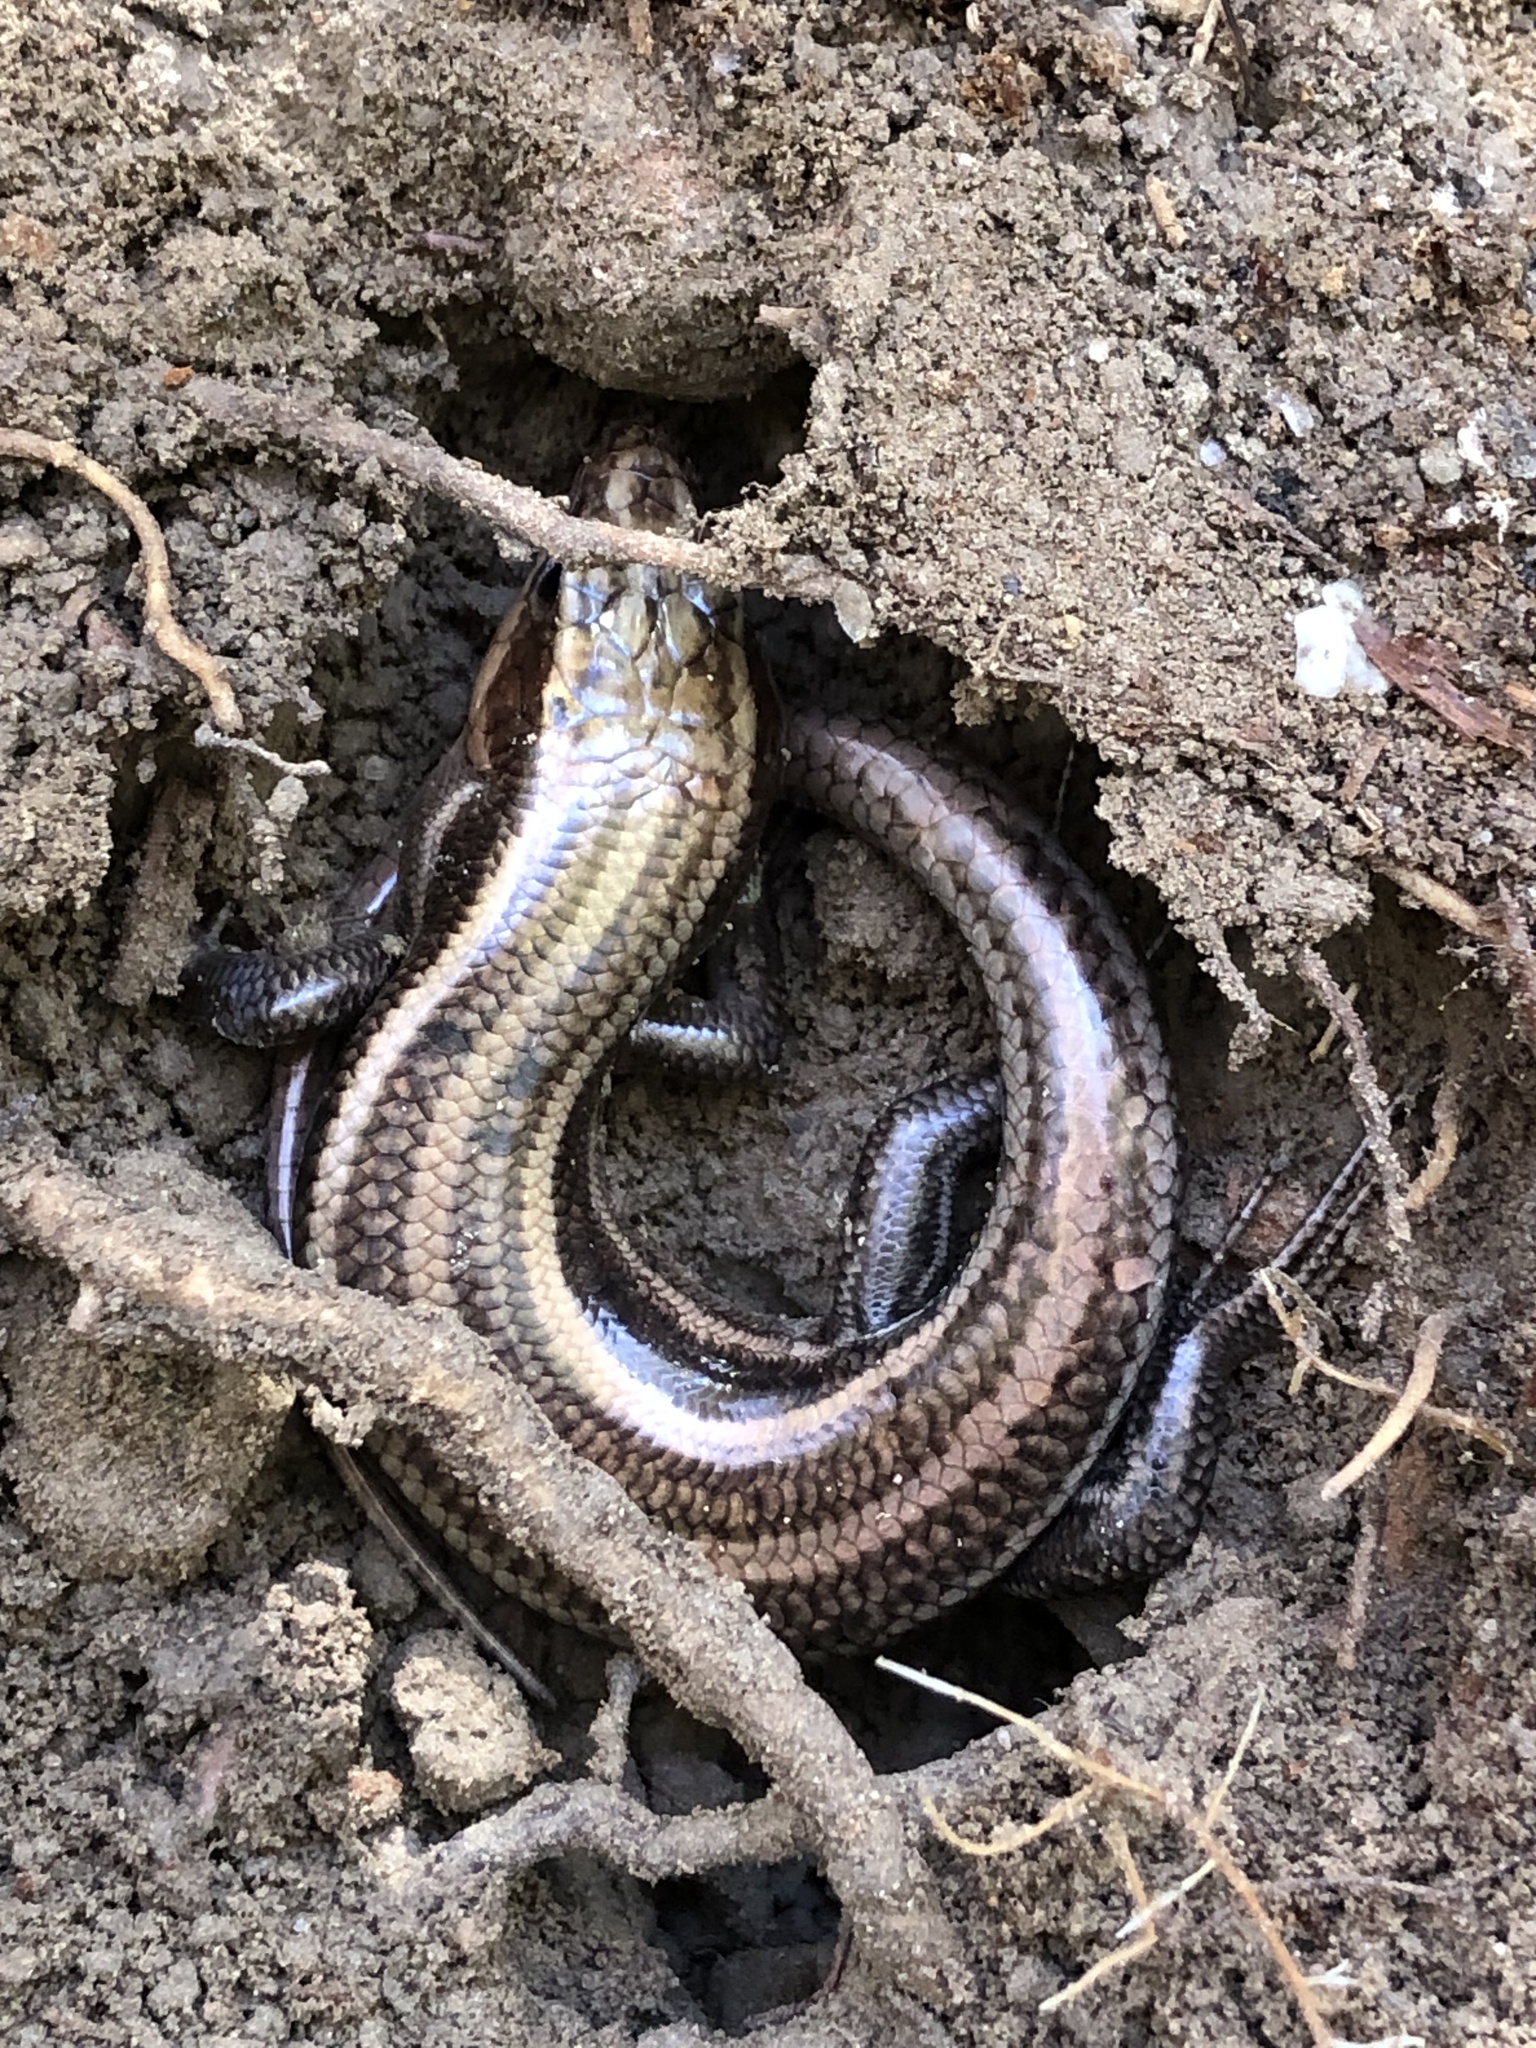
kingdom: Animalia
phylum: Chordata
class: Squamata
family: Scincidae
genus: Plestiodon
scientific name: Plestiodon fasciatus
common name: Five-lined skink
